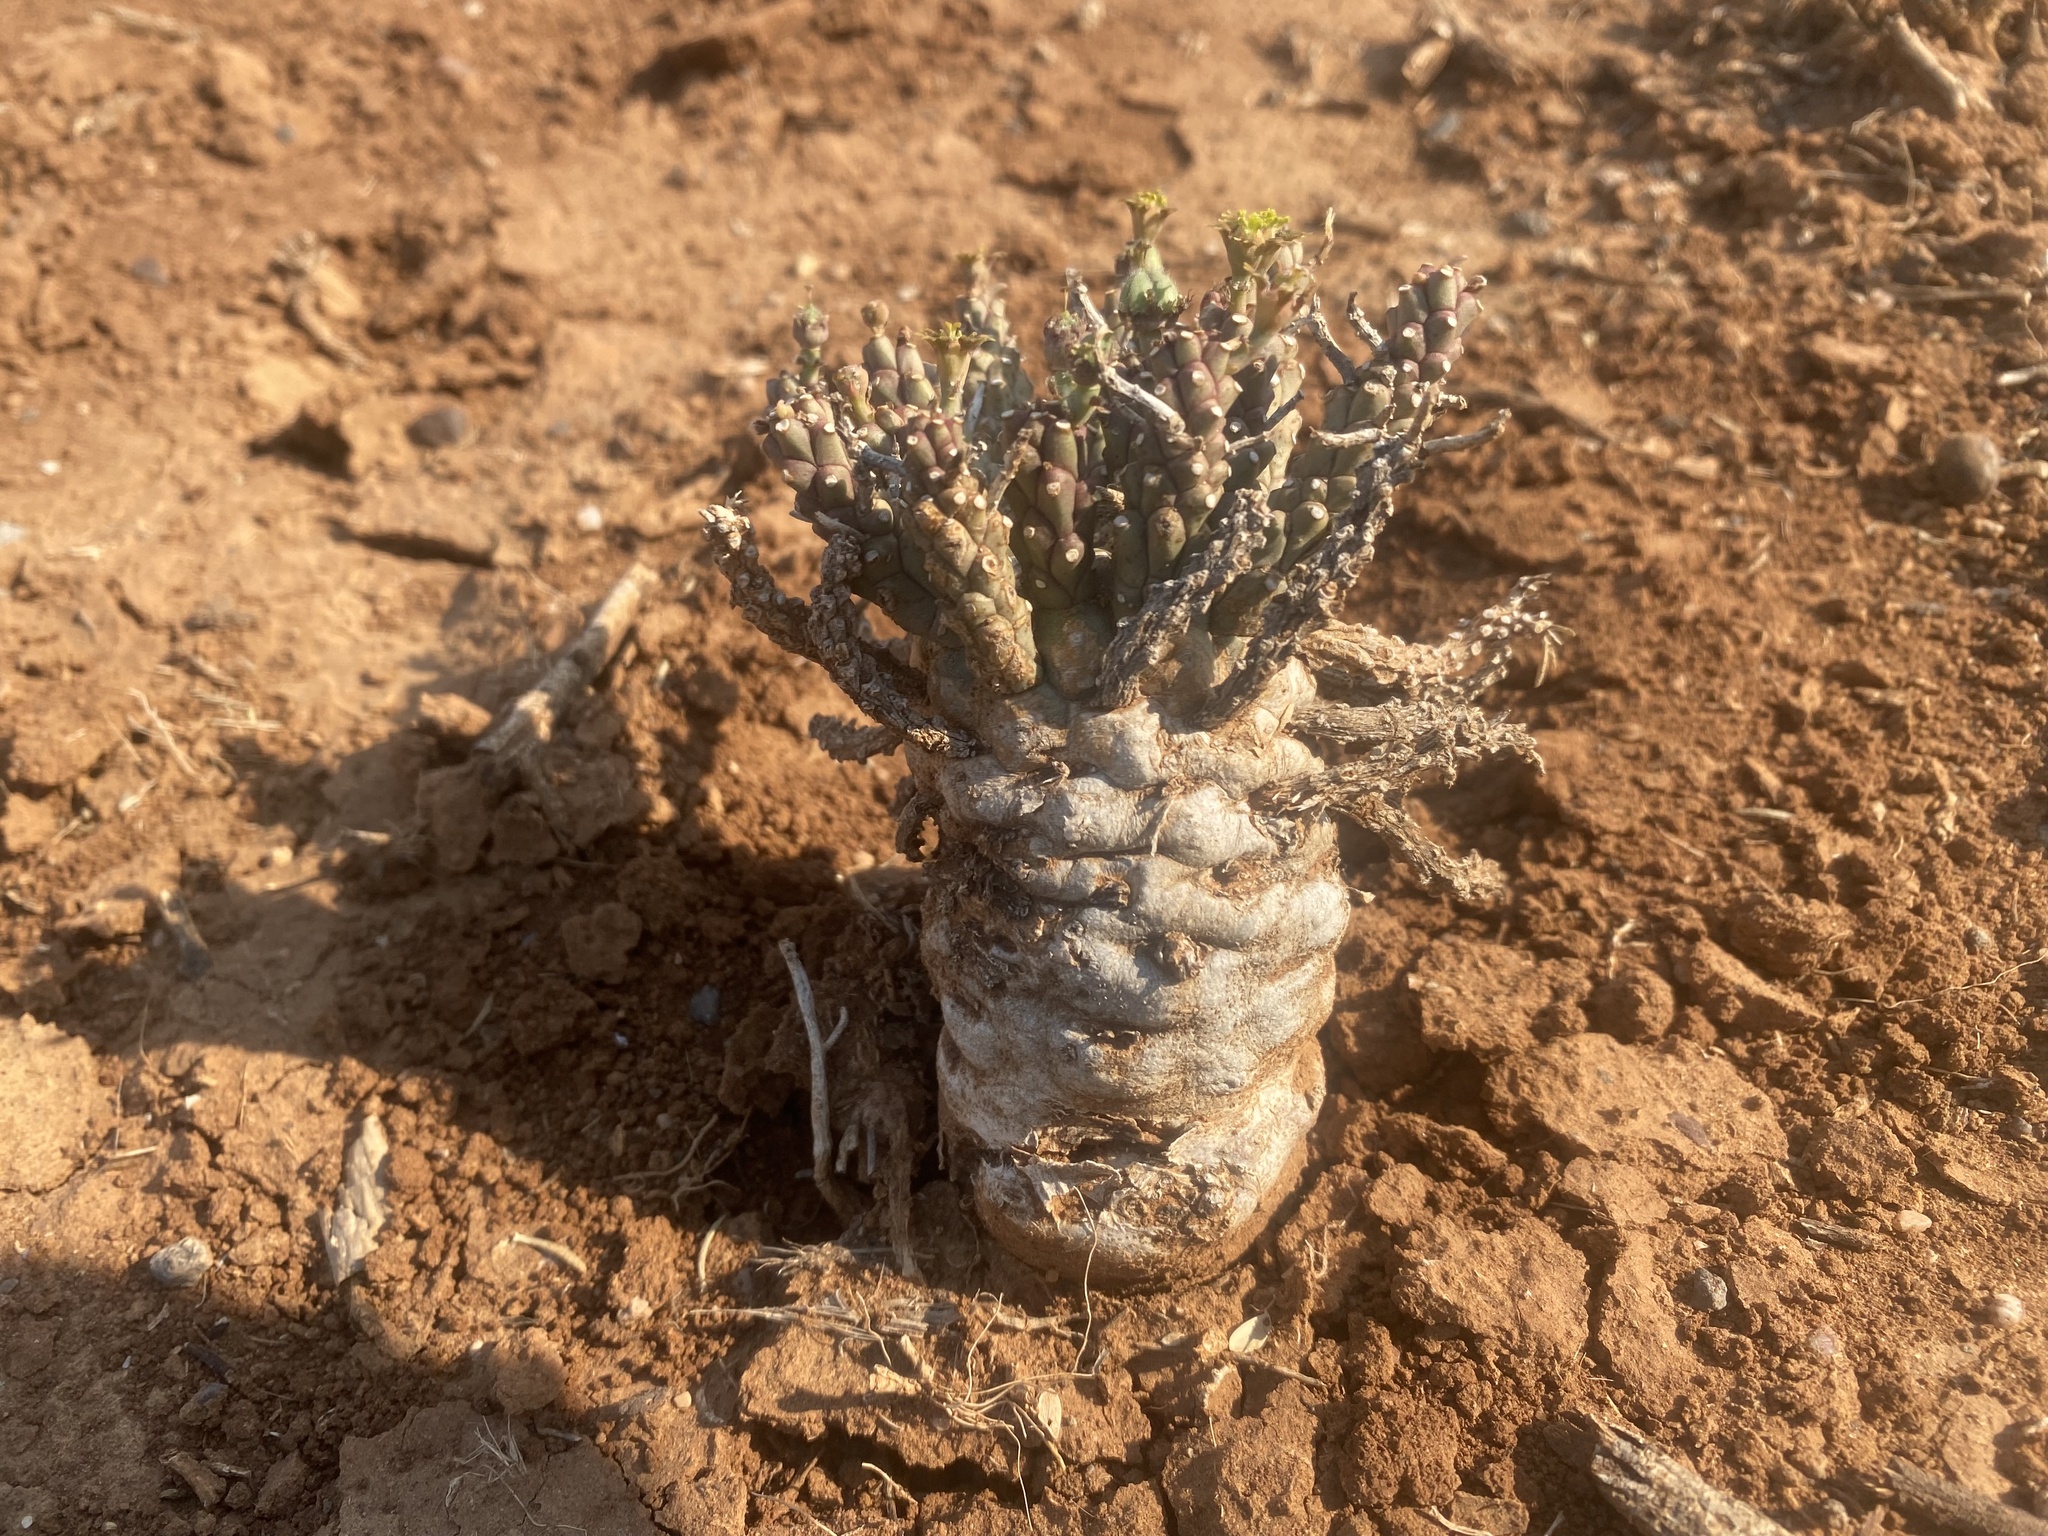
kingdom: Plantae
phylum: Tracheophyta
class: Magnoliopsida
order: Malpighiales
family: Euphorbiaceae
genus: Euphorbia
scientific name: Euphorbia maleolens
